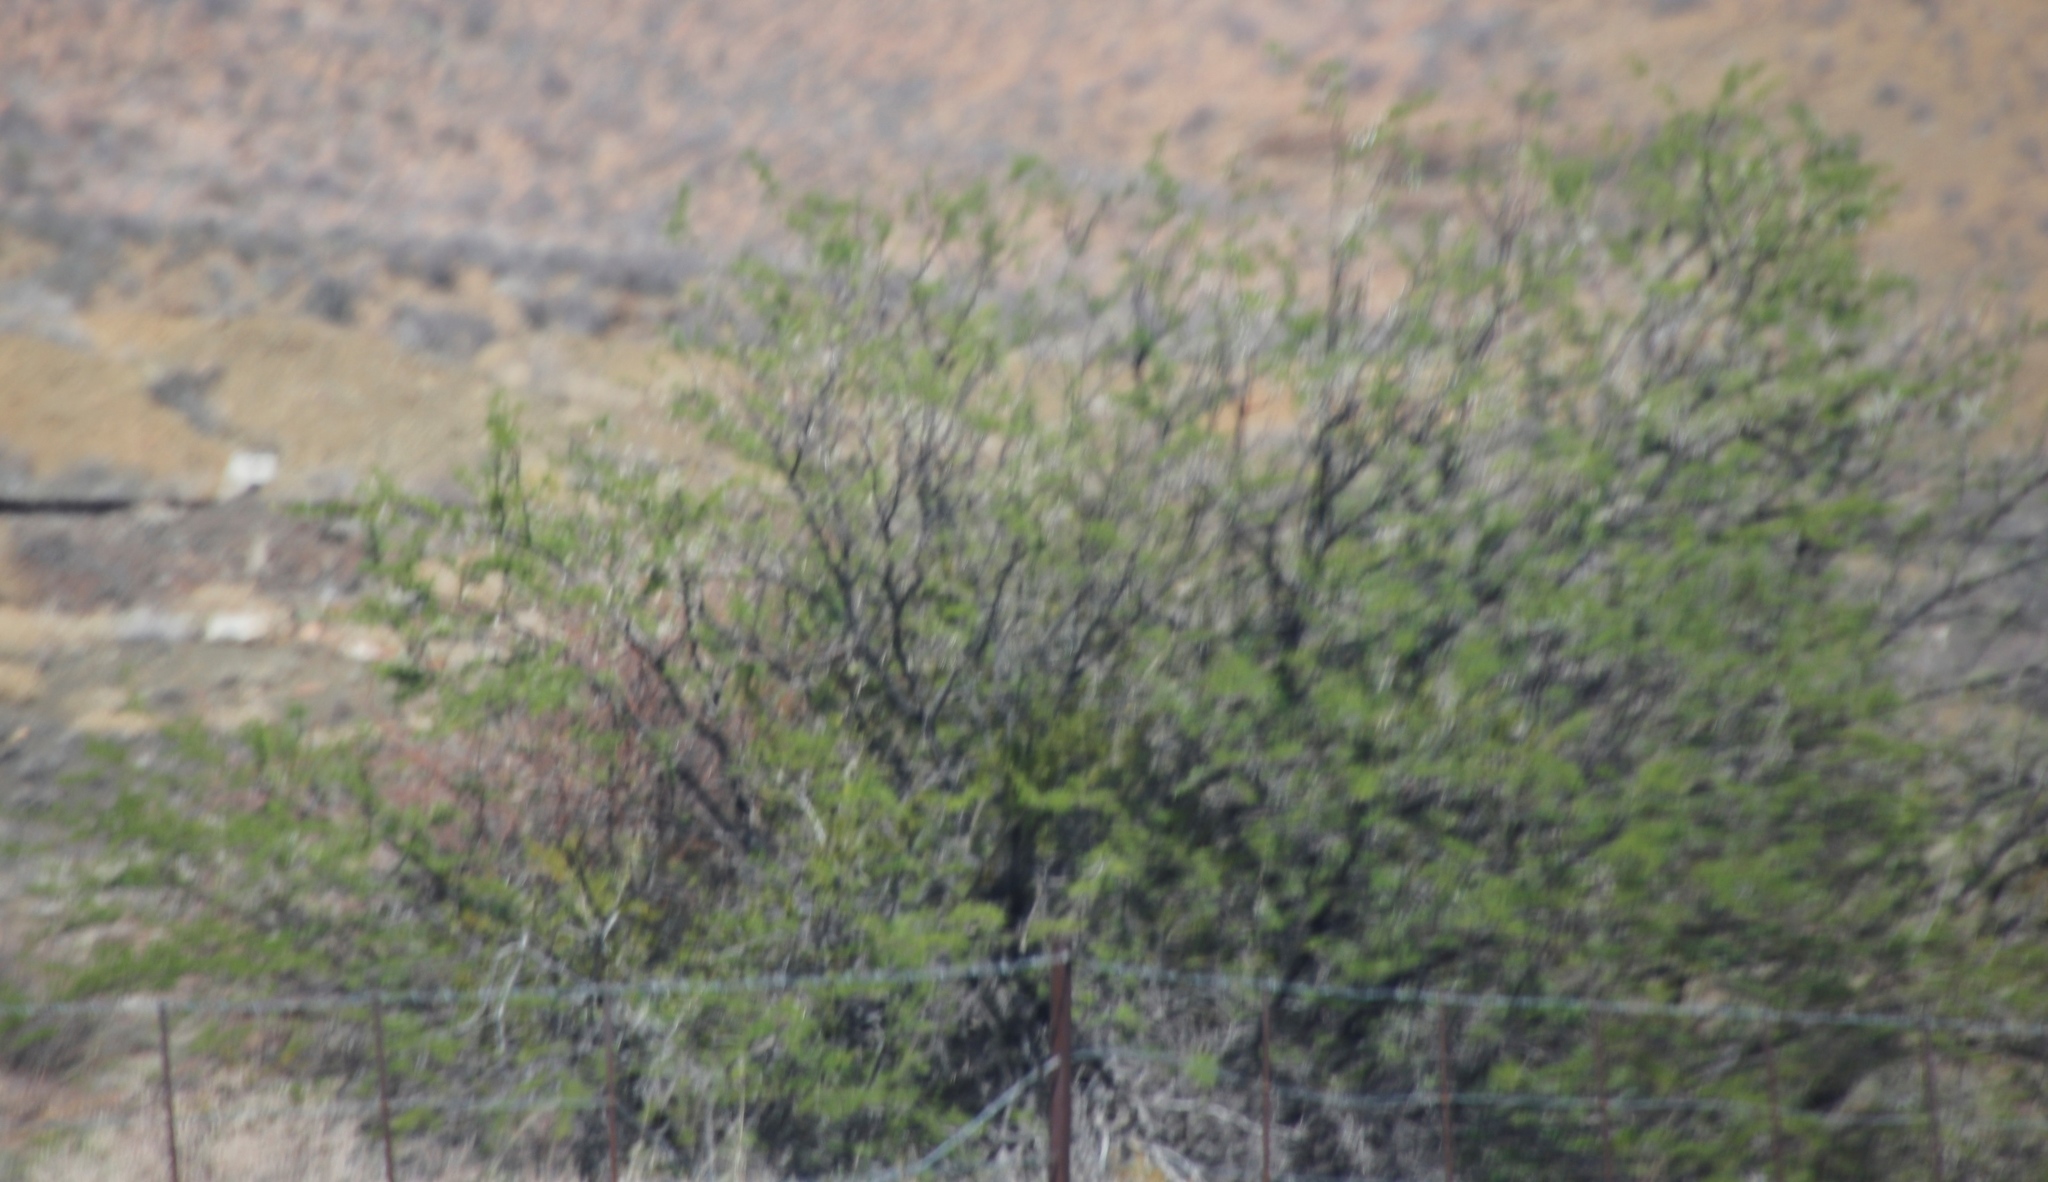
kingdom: Plantae
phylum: Tracheophyta
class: Magnoliopsida
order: Fabales
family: Fabaceae
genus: Vachellia
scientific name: Vachellia karroo
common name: Sweet thorn
